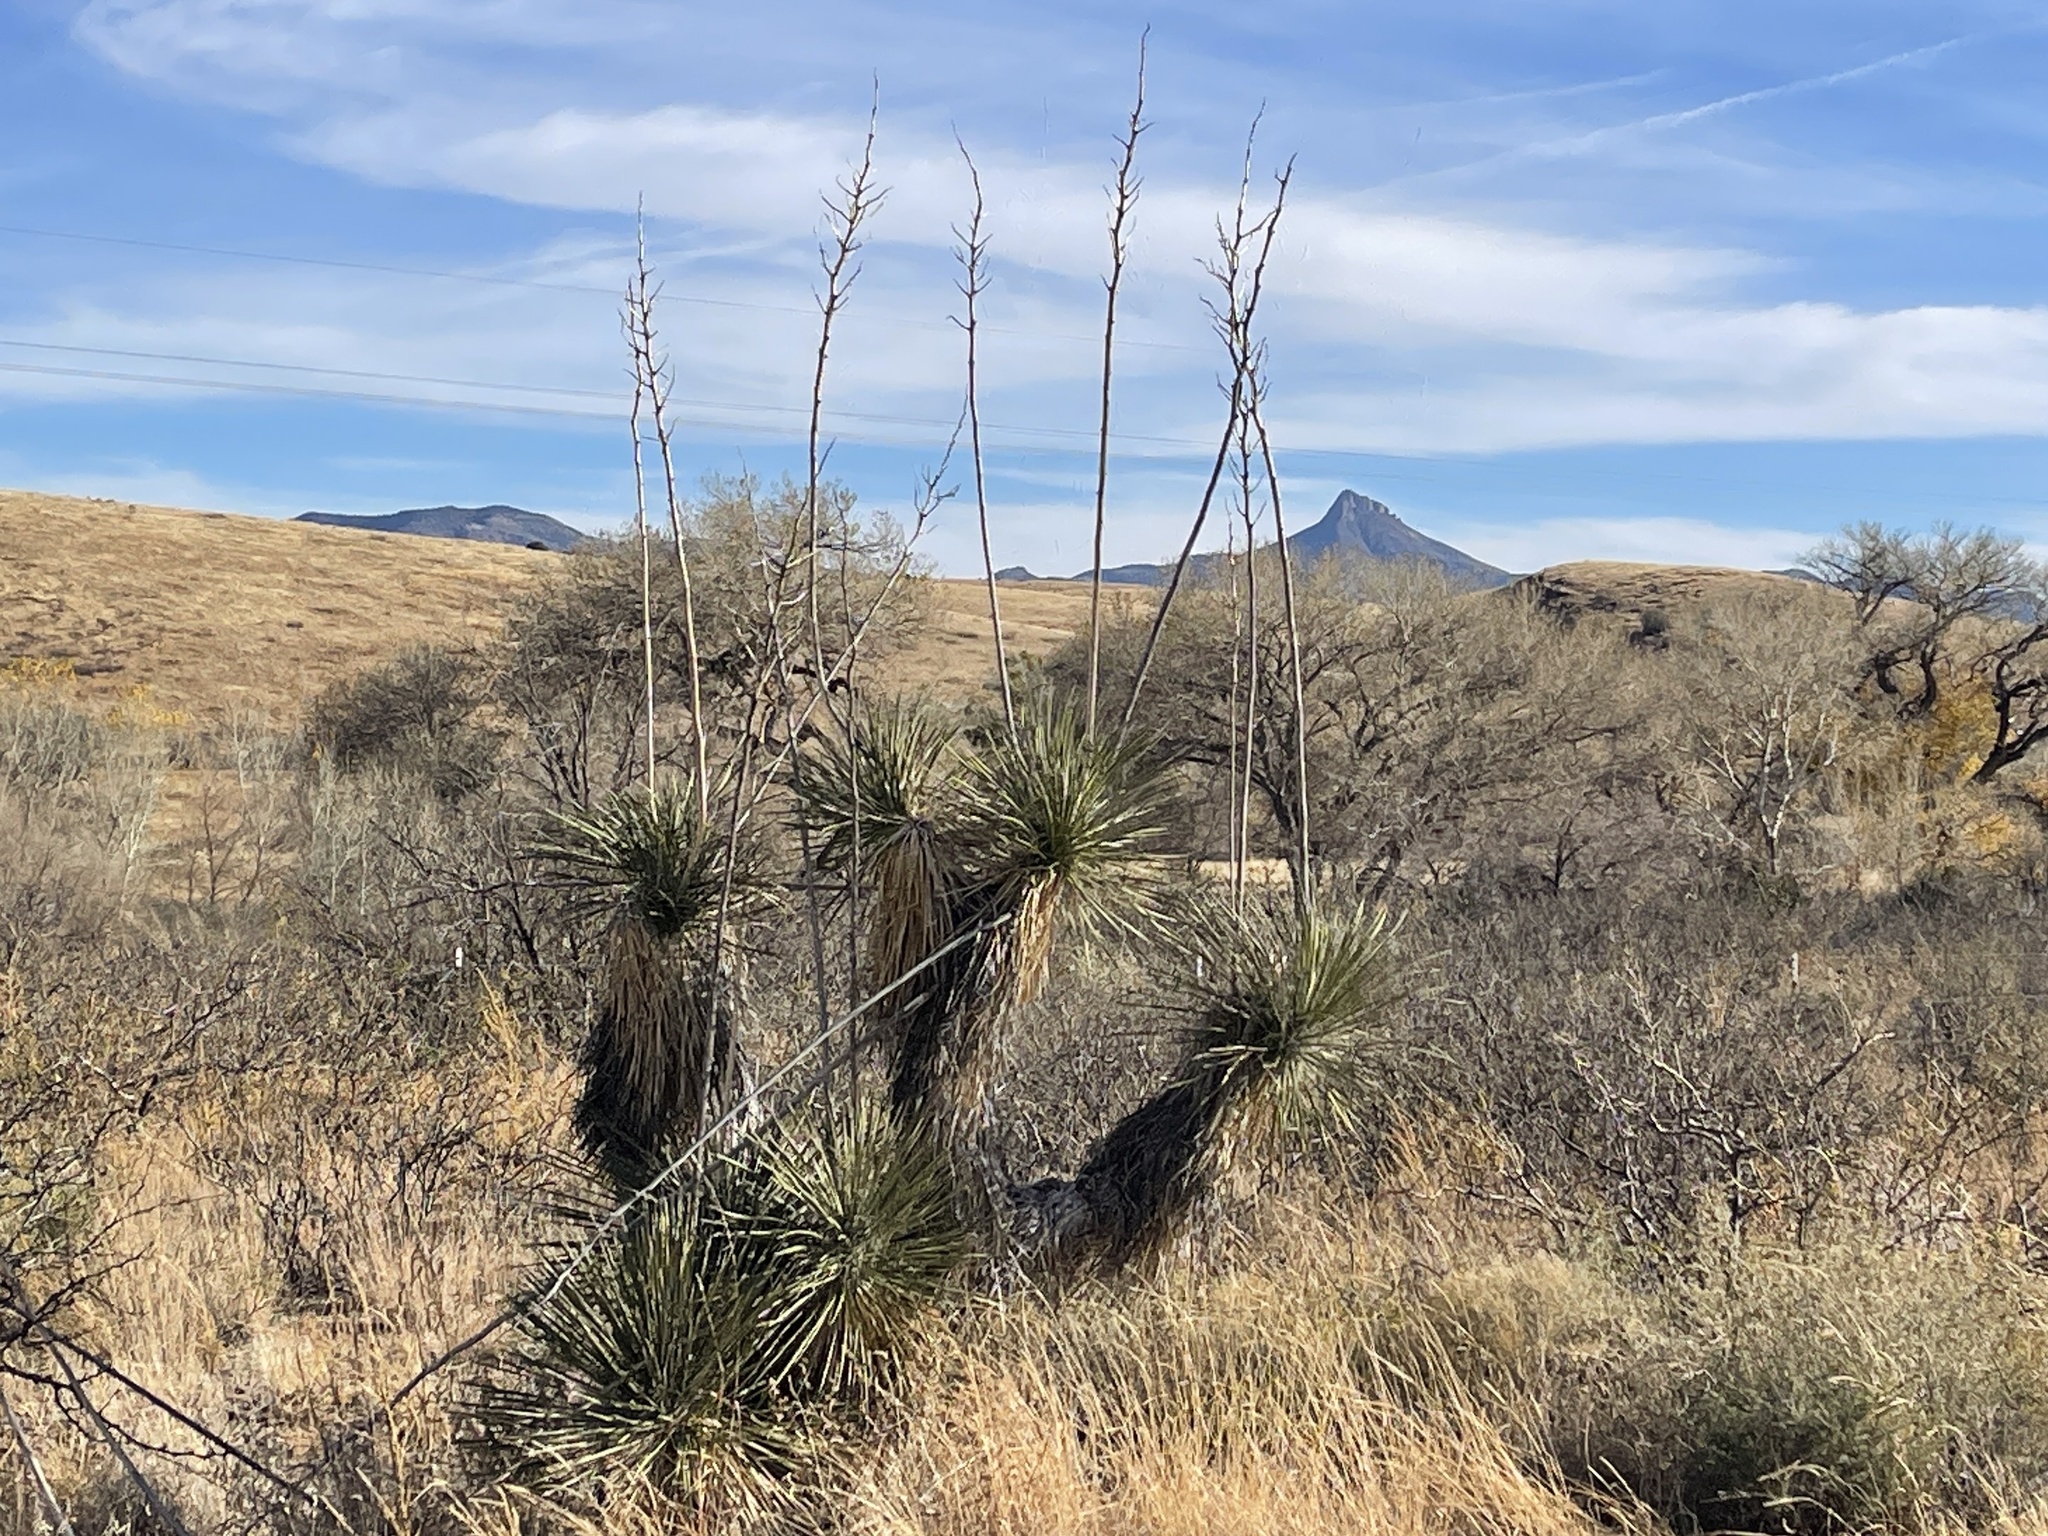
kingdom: Plantae
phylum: Tracheophyta
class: Liliopsida
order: Asparagales
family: Asparagaceae
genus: Yucca
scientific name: Yucca elata
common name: Palmella
